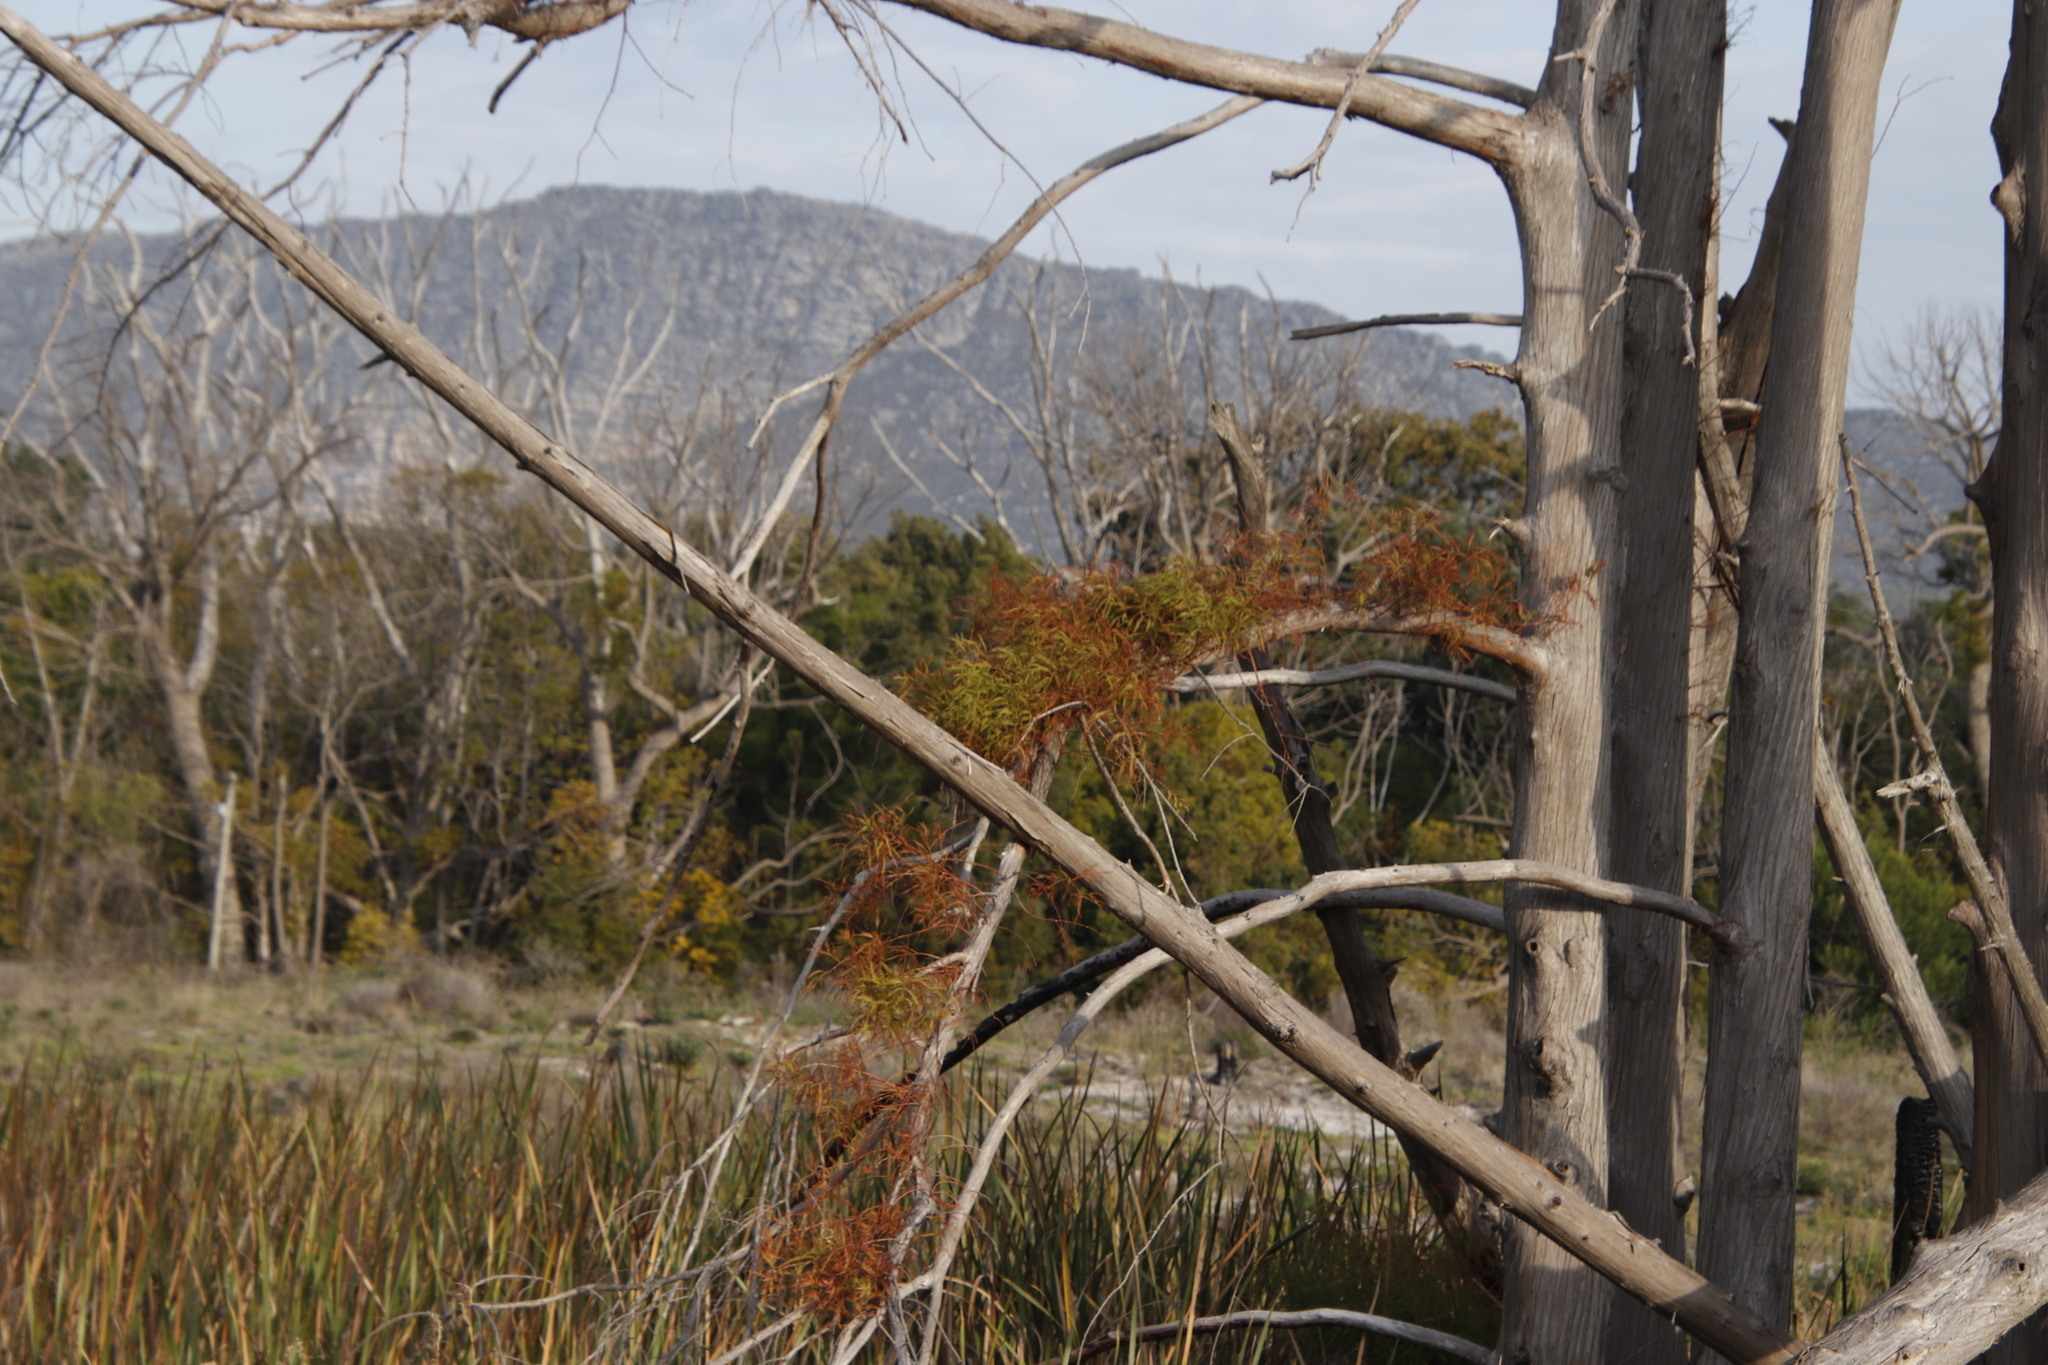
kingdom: Plantae
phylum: Tracheophyta
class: Pinopsida
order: Pinales
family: Cupressaceae
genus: Taxodium
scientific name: Taxodium distichum
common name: Bald cypress
